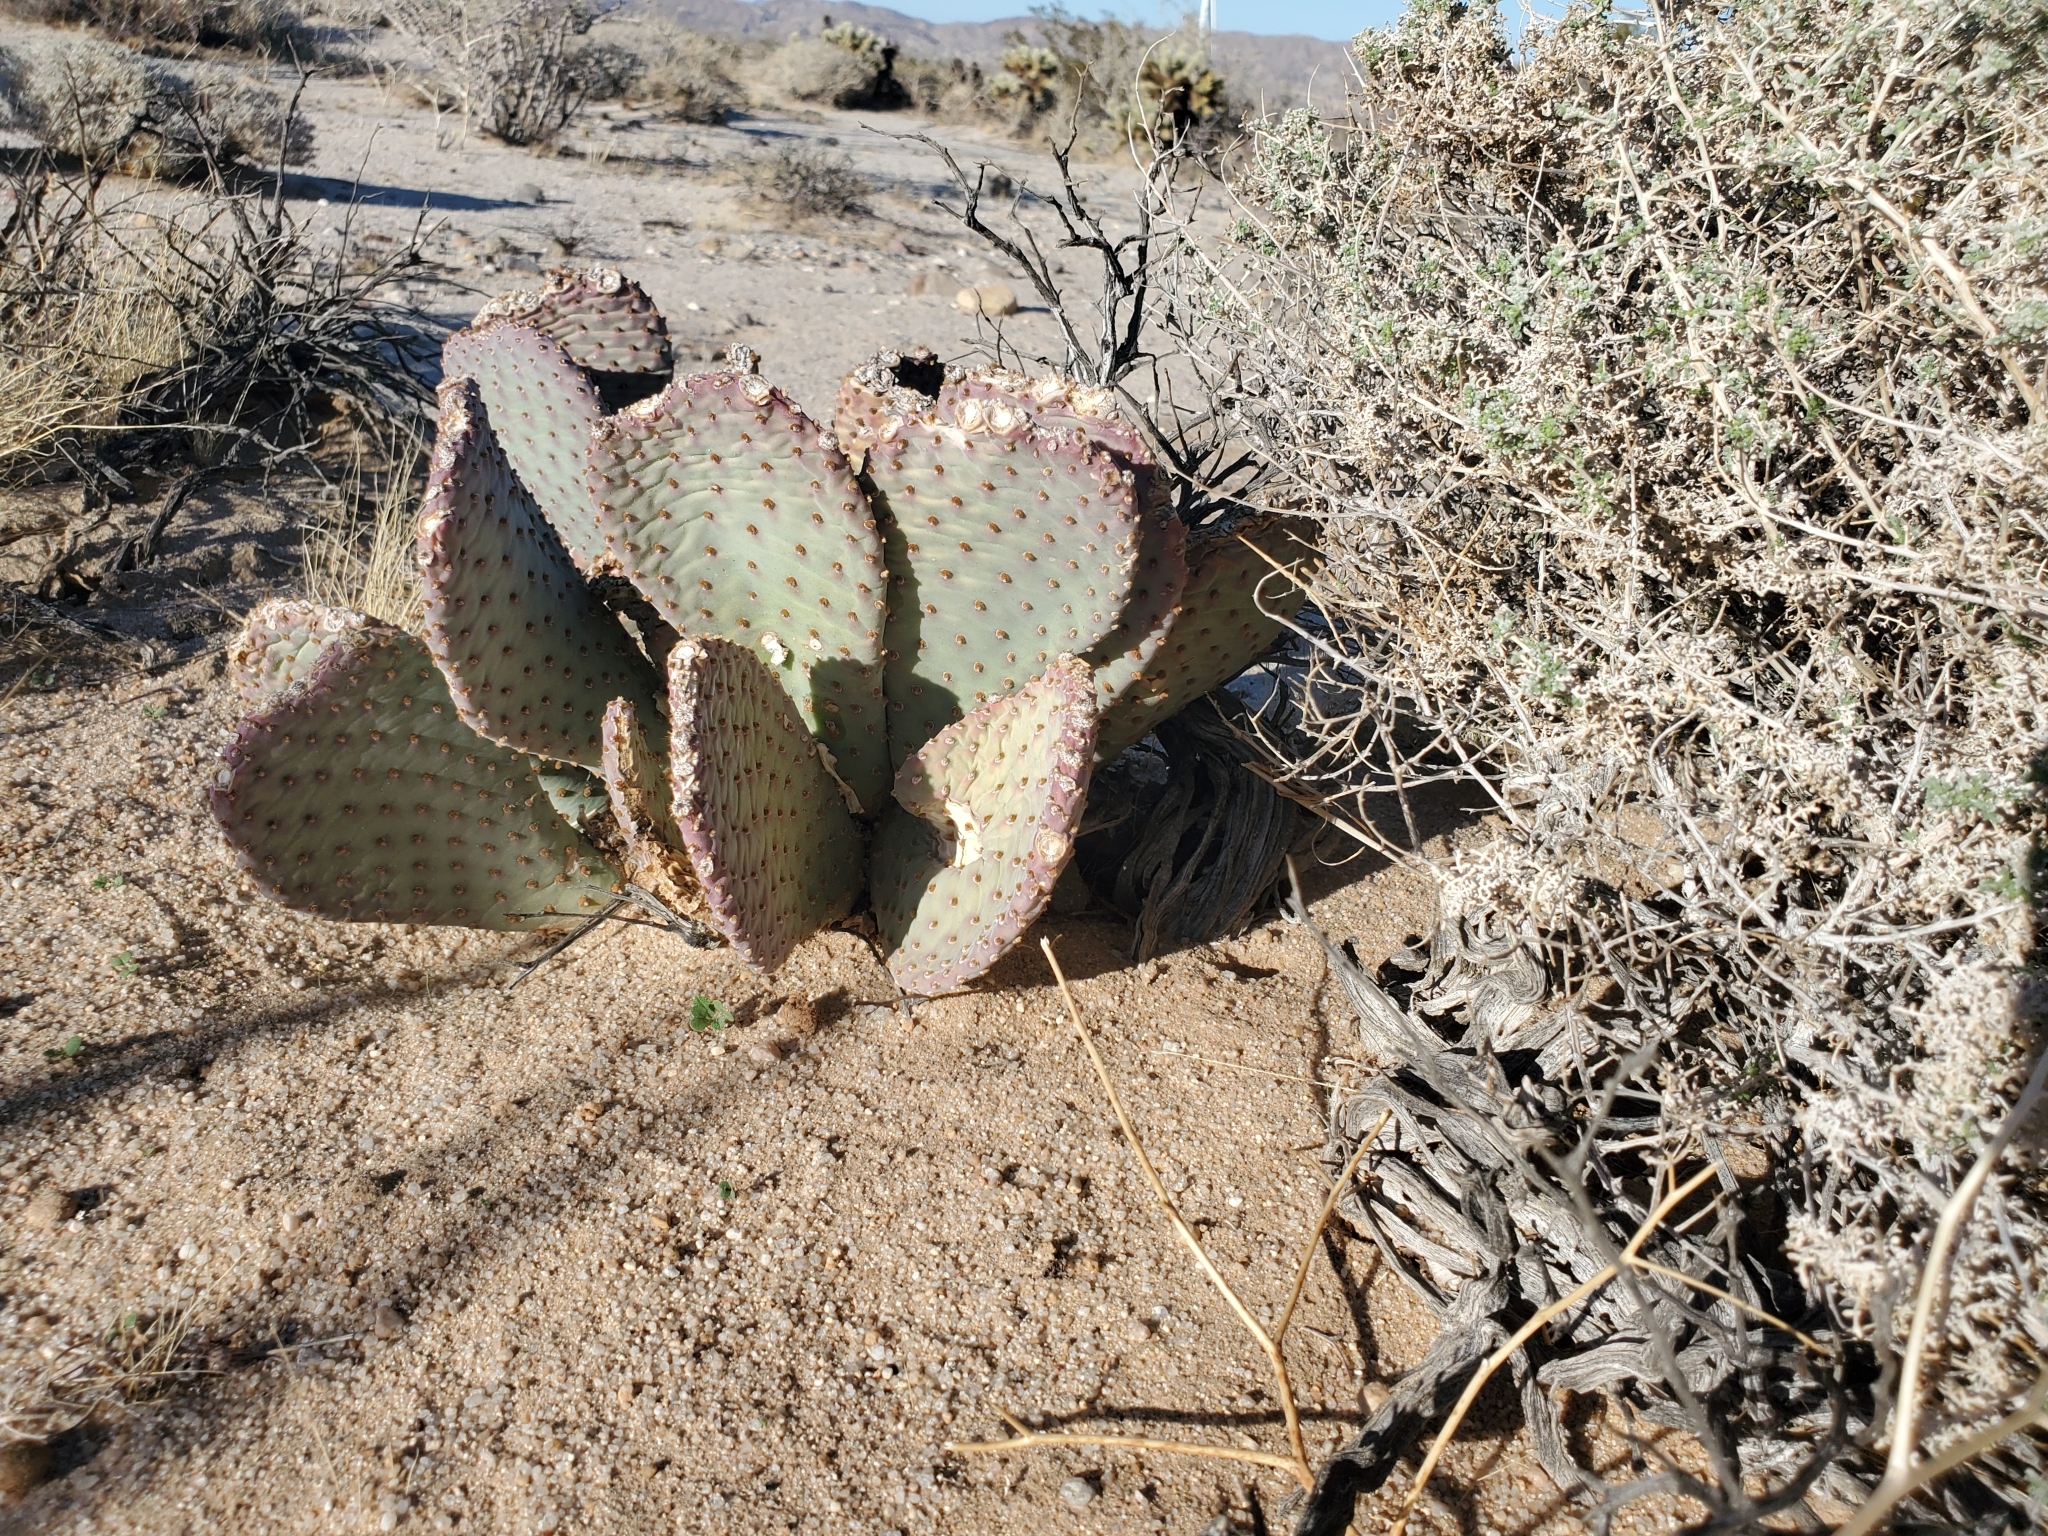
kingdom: Plantae
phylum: Tracheophyta
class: Magnoliopsida
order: Caryophyllales
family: Cactaceae
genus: Opuntia
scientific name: Opuntia basilaris
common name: Beavertail prickly-pear
